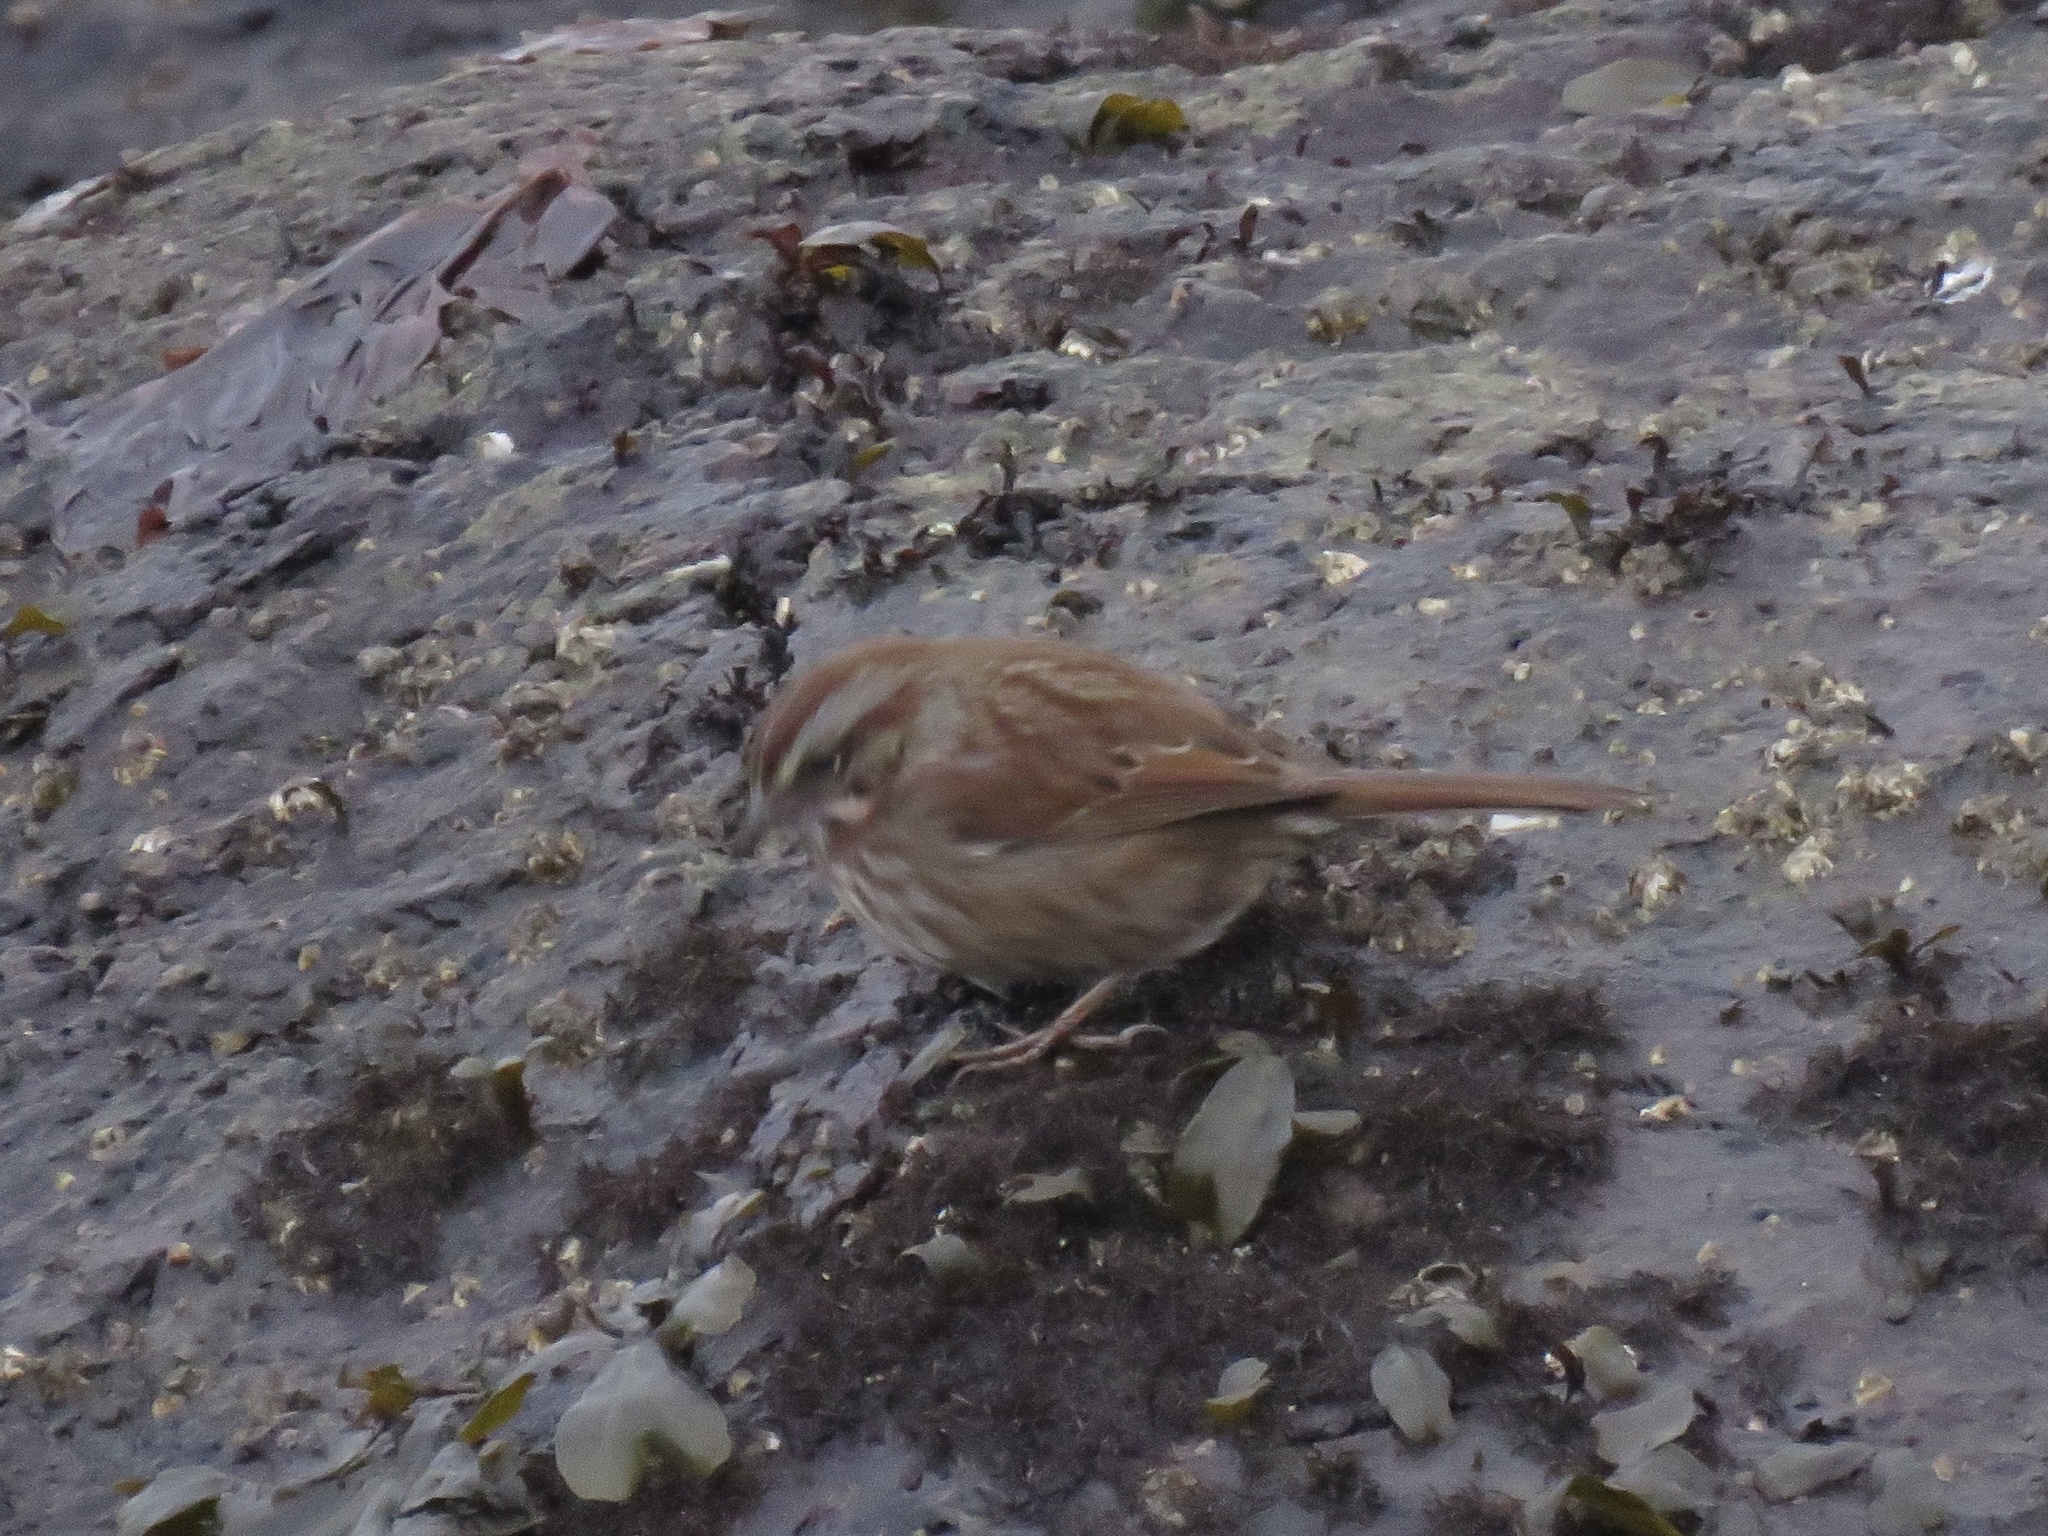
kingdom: Animalia
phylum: Chordata
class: Aves
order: Passeriformes
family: Passerellidae
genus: Melospiza
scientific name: Melospiza melodia
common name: Song sparrow
